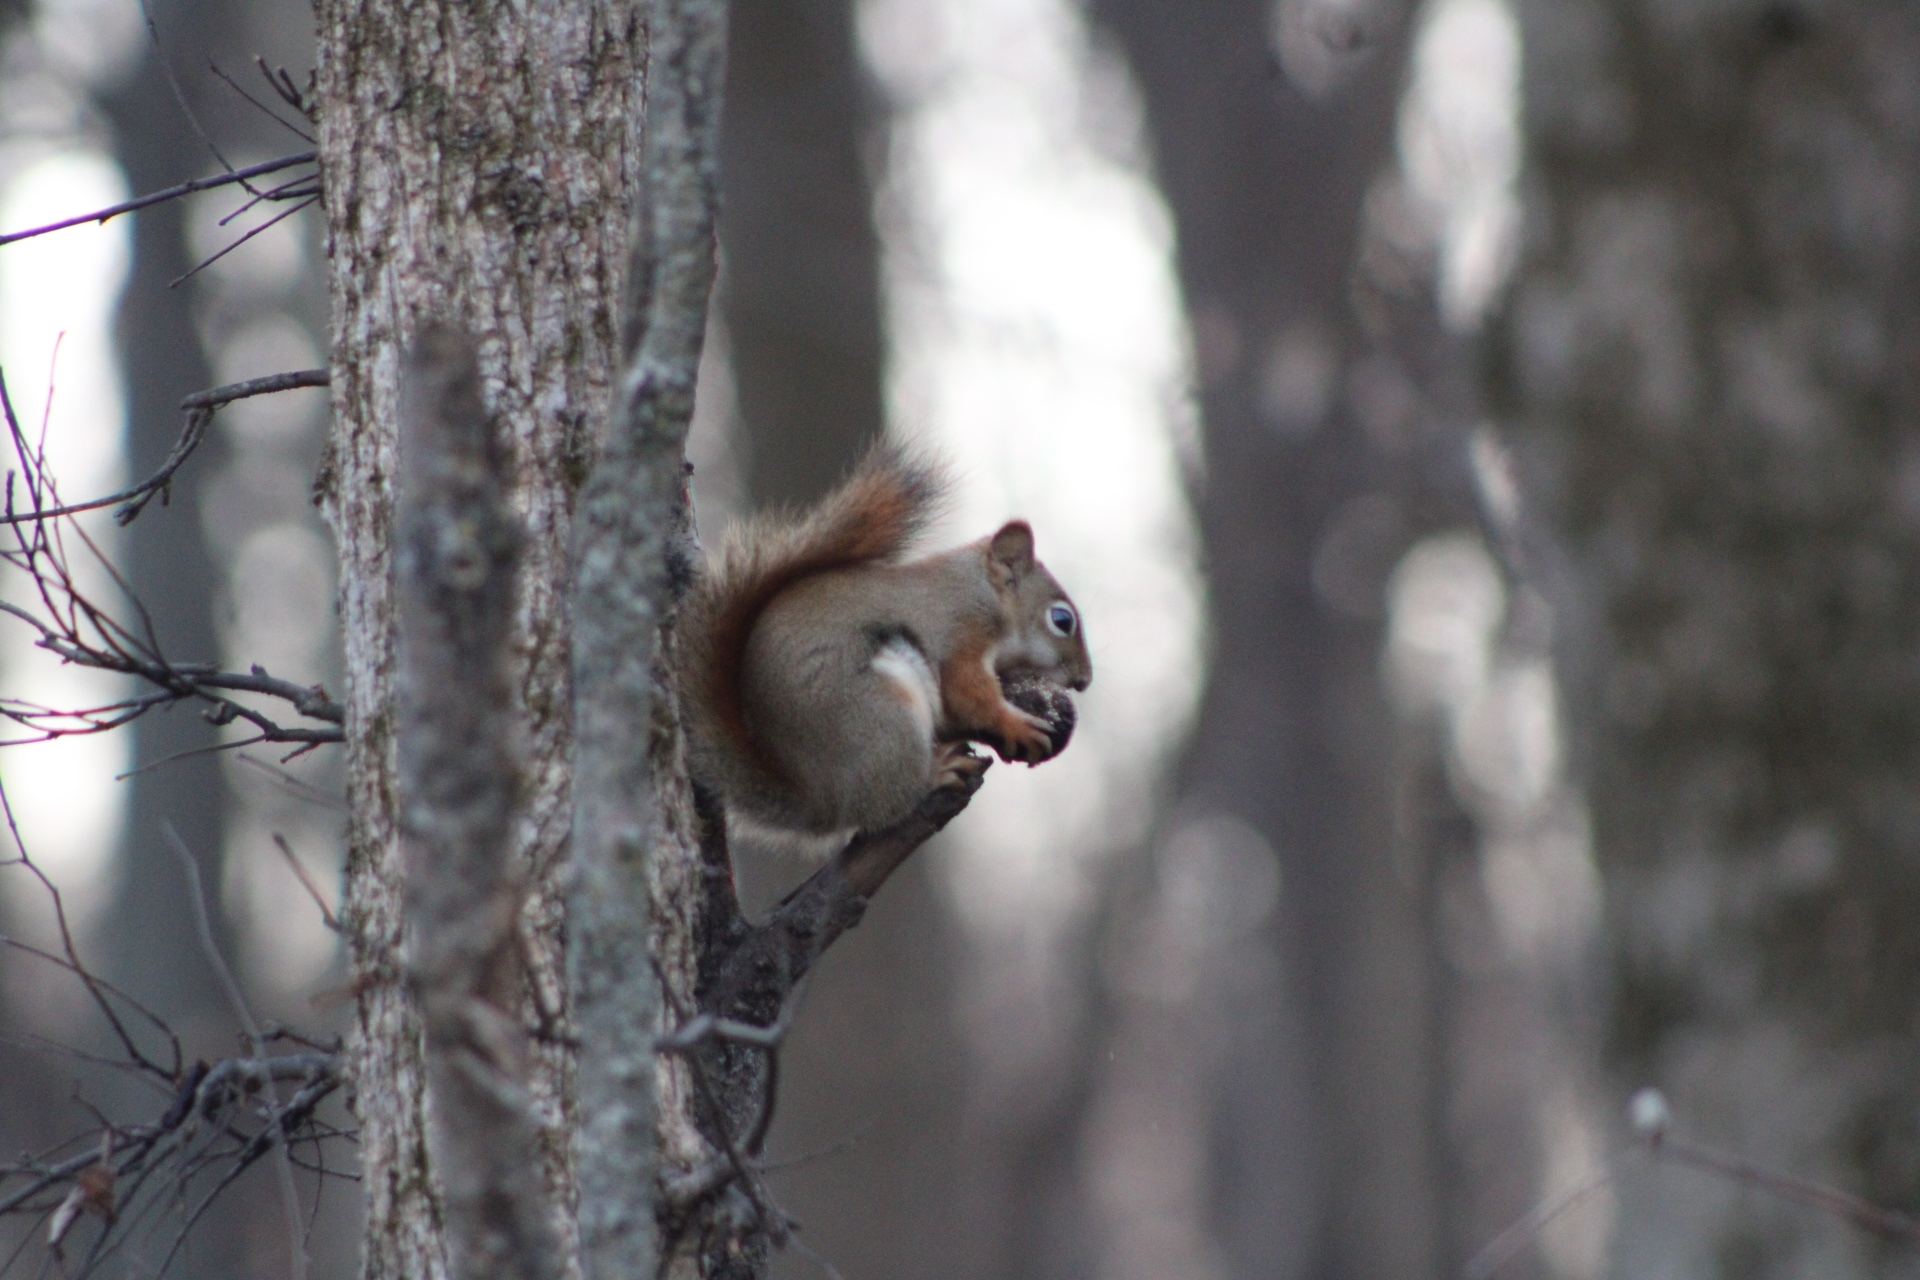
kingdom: Animalia
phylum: Chordata
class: Mammalia
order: Rodentia
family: Sciuridae
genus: Tamiasciurus
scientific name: Tamiasciurus hudsonicus
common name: Red squirrel
